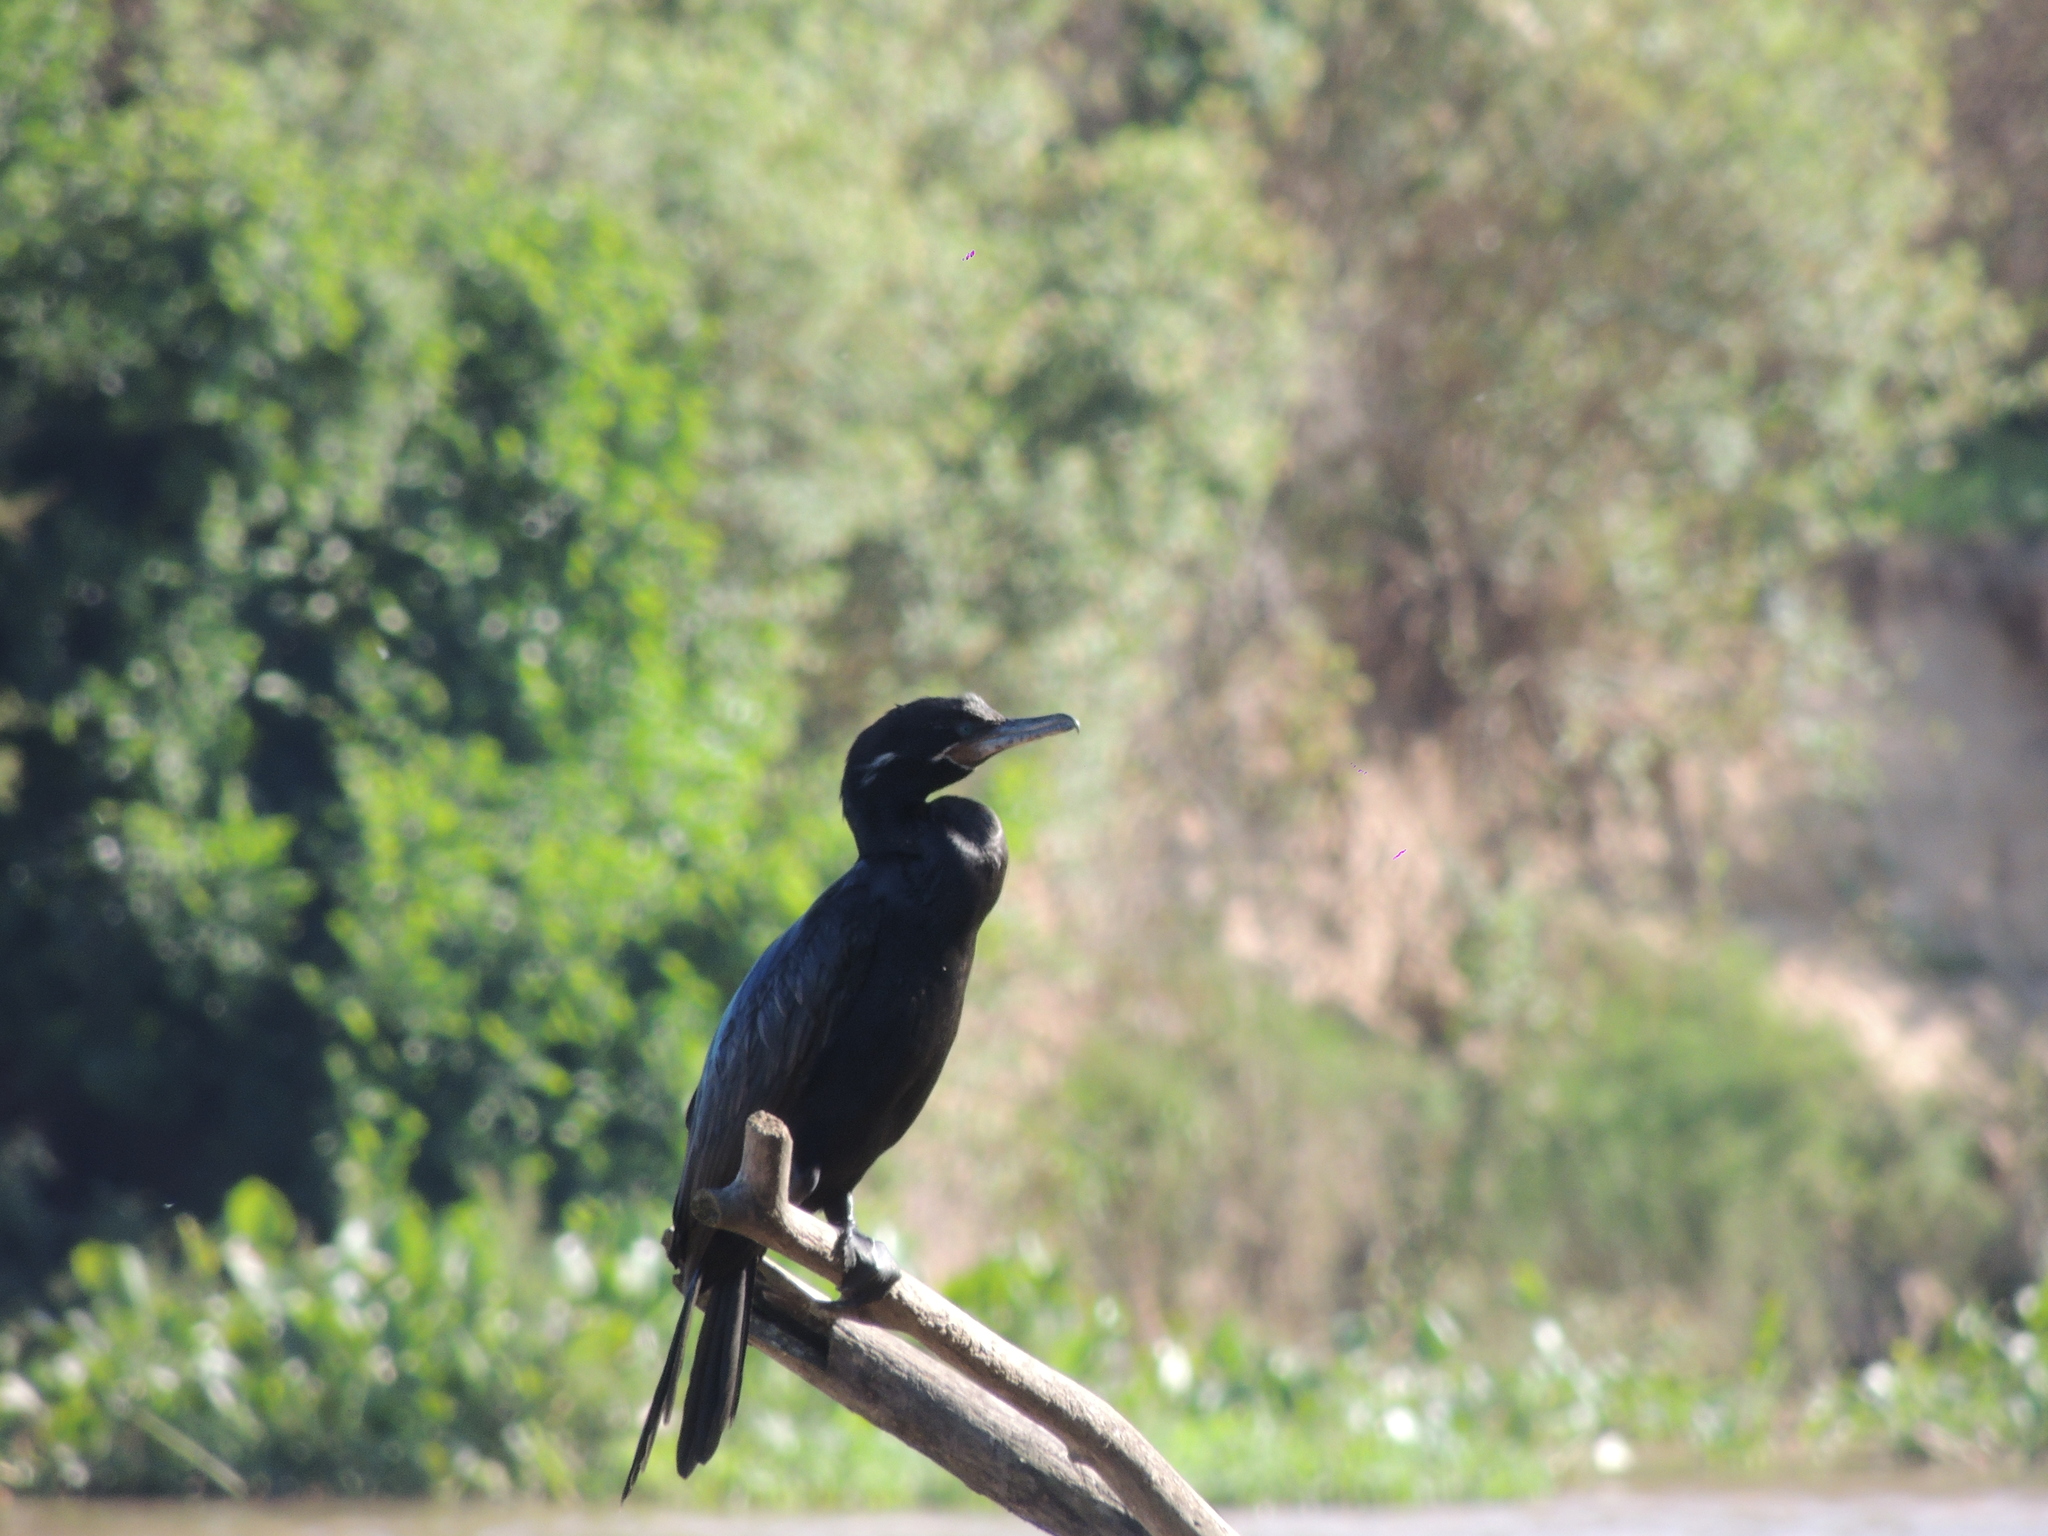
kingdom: Animalia
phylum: Chordata
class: Aves
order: Suliformes
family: Phalacrocoracidae
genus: Phalacrocorax
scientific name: Phalacrocorax brasilianus
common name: Neotropic cormorant
